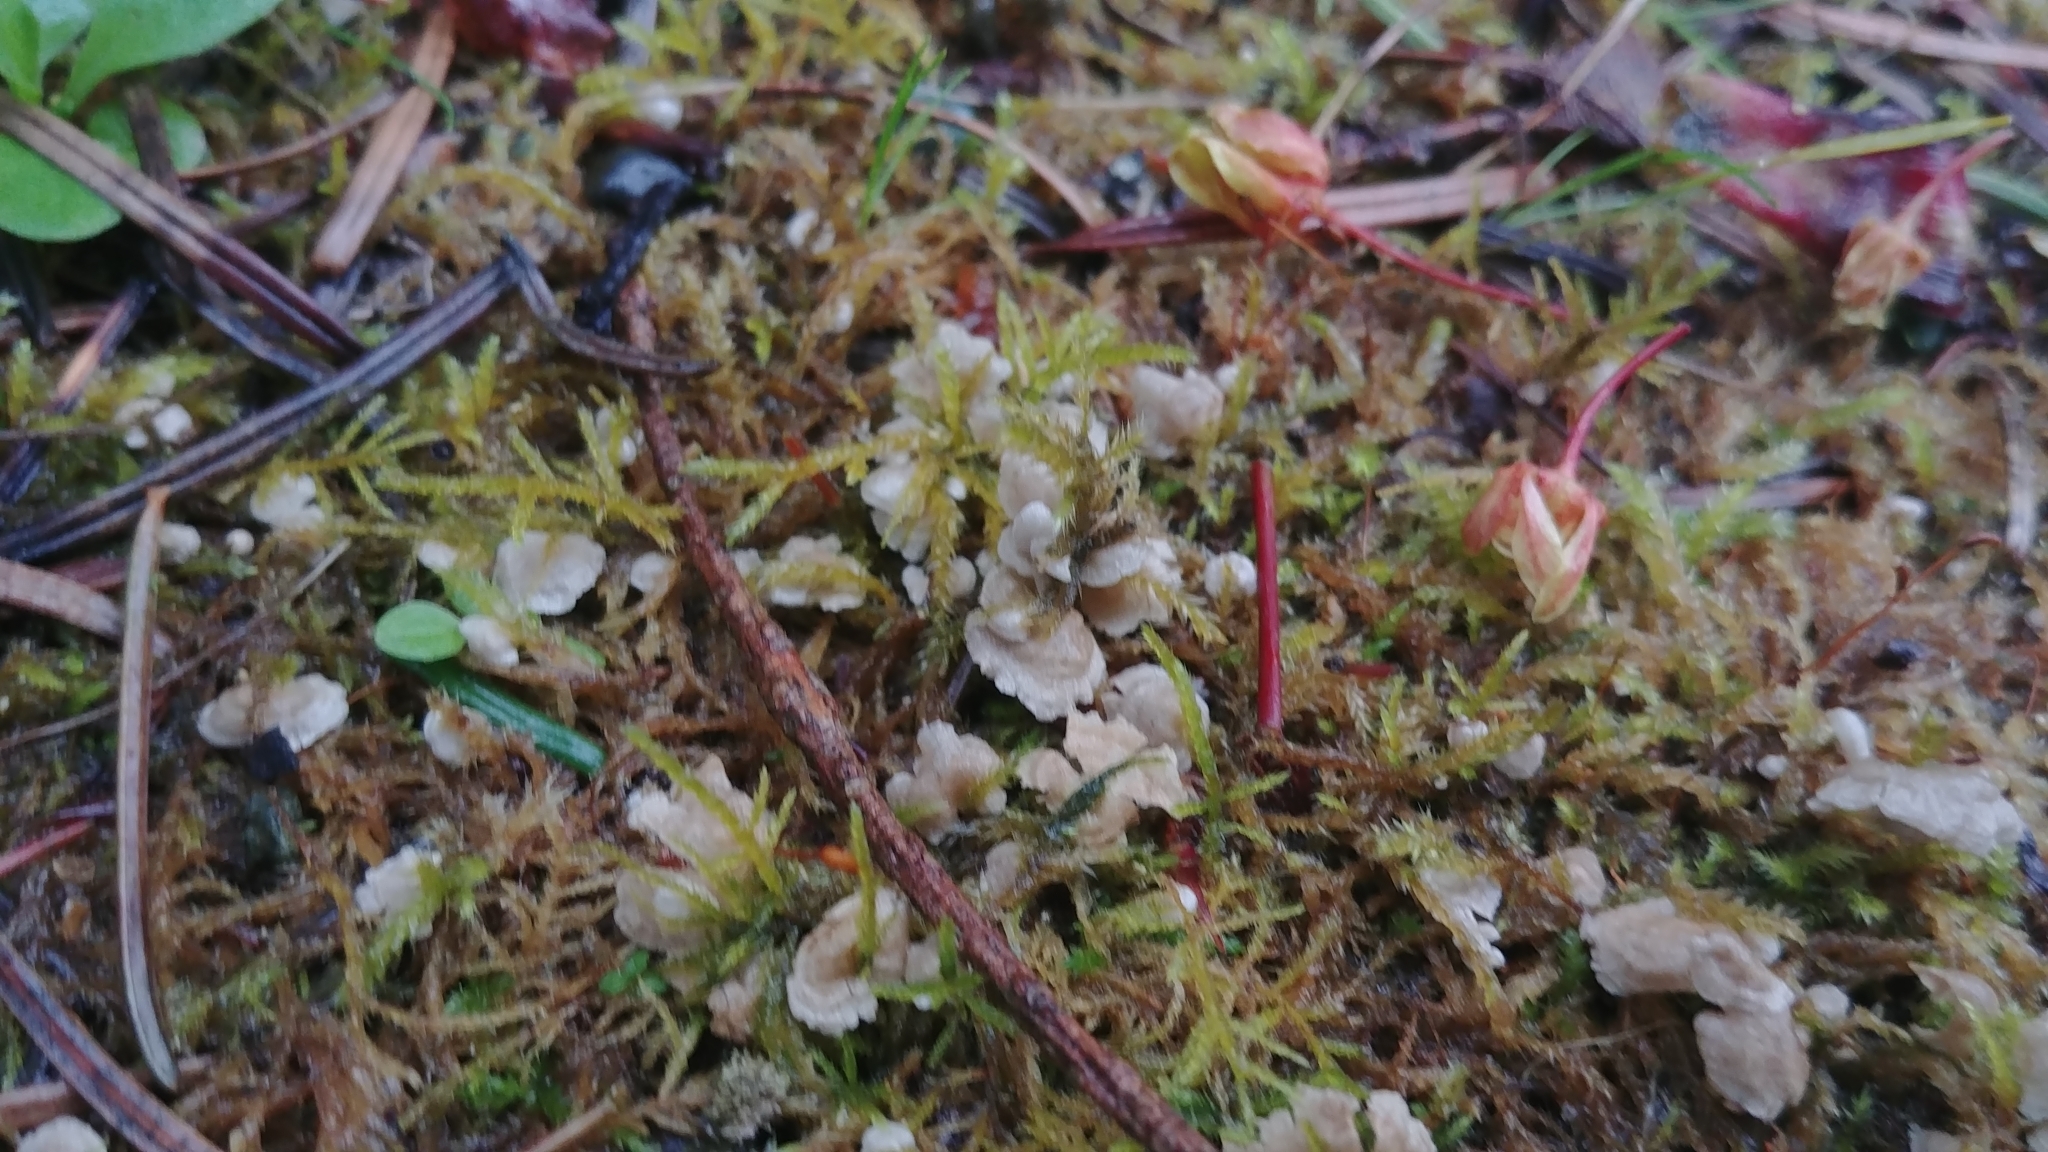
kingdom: Fungi
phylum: Basidiomycota
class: Agaricomycetes
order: Agaricales
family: Hygrophoraceae
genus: Arrhenia
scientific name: Arrhenia retiruga
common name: Small moss oysterling
